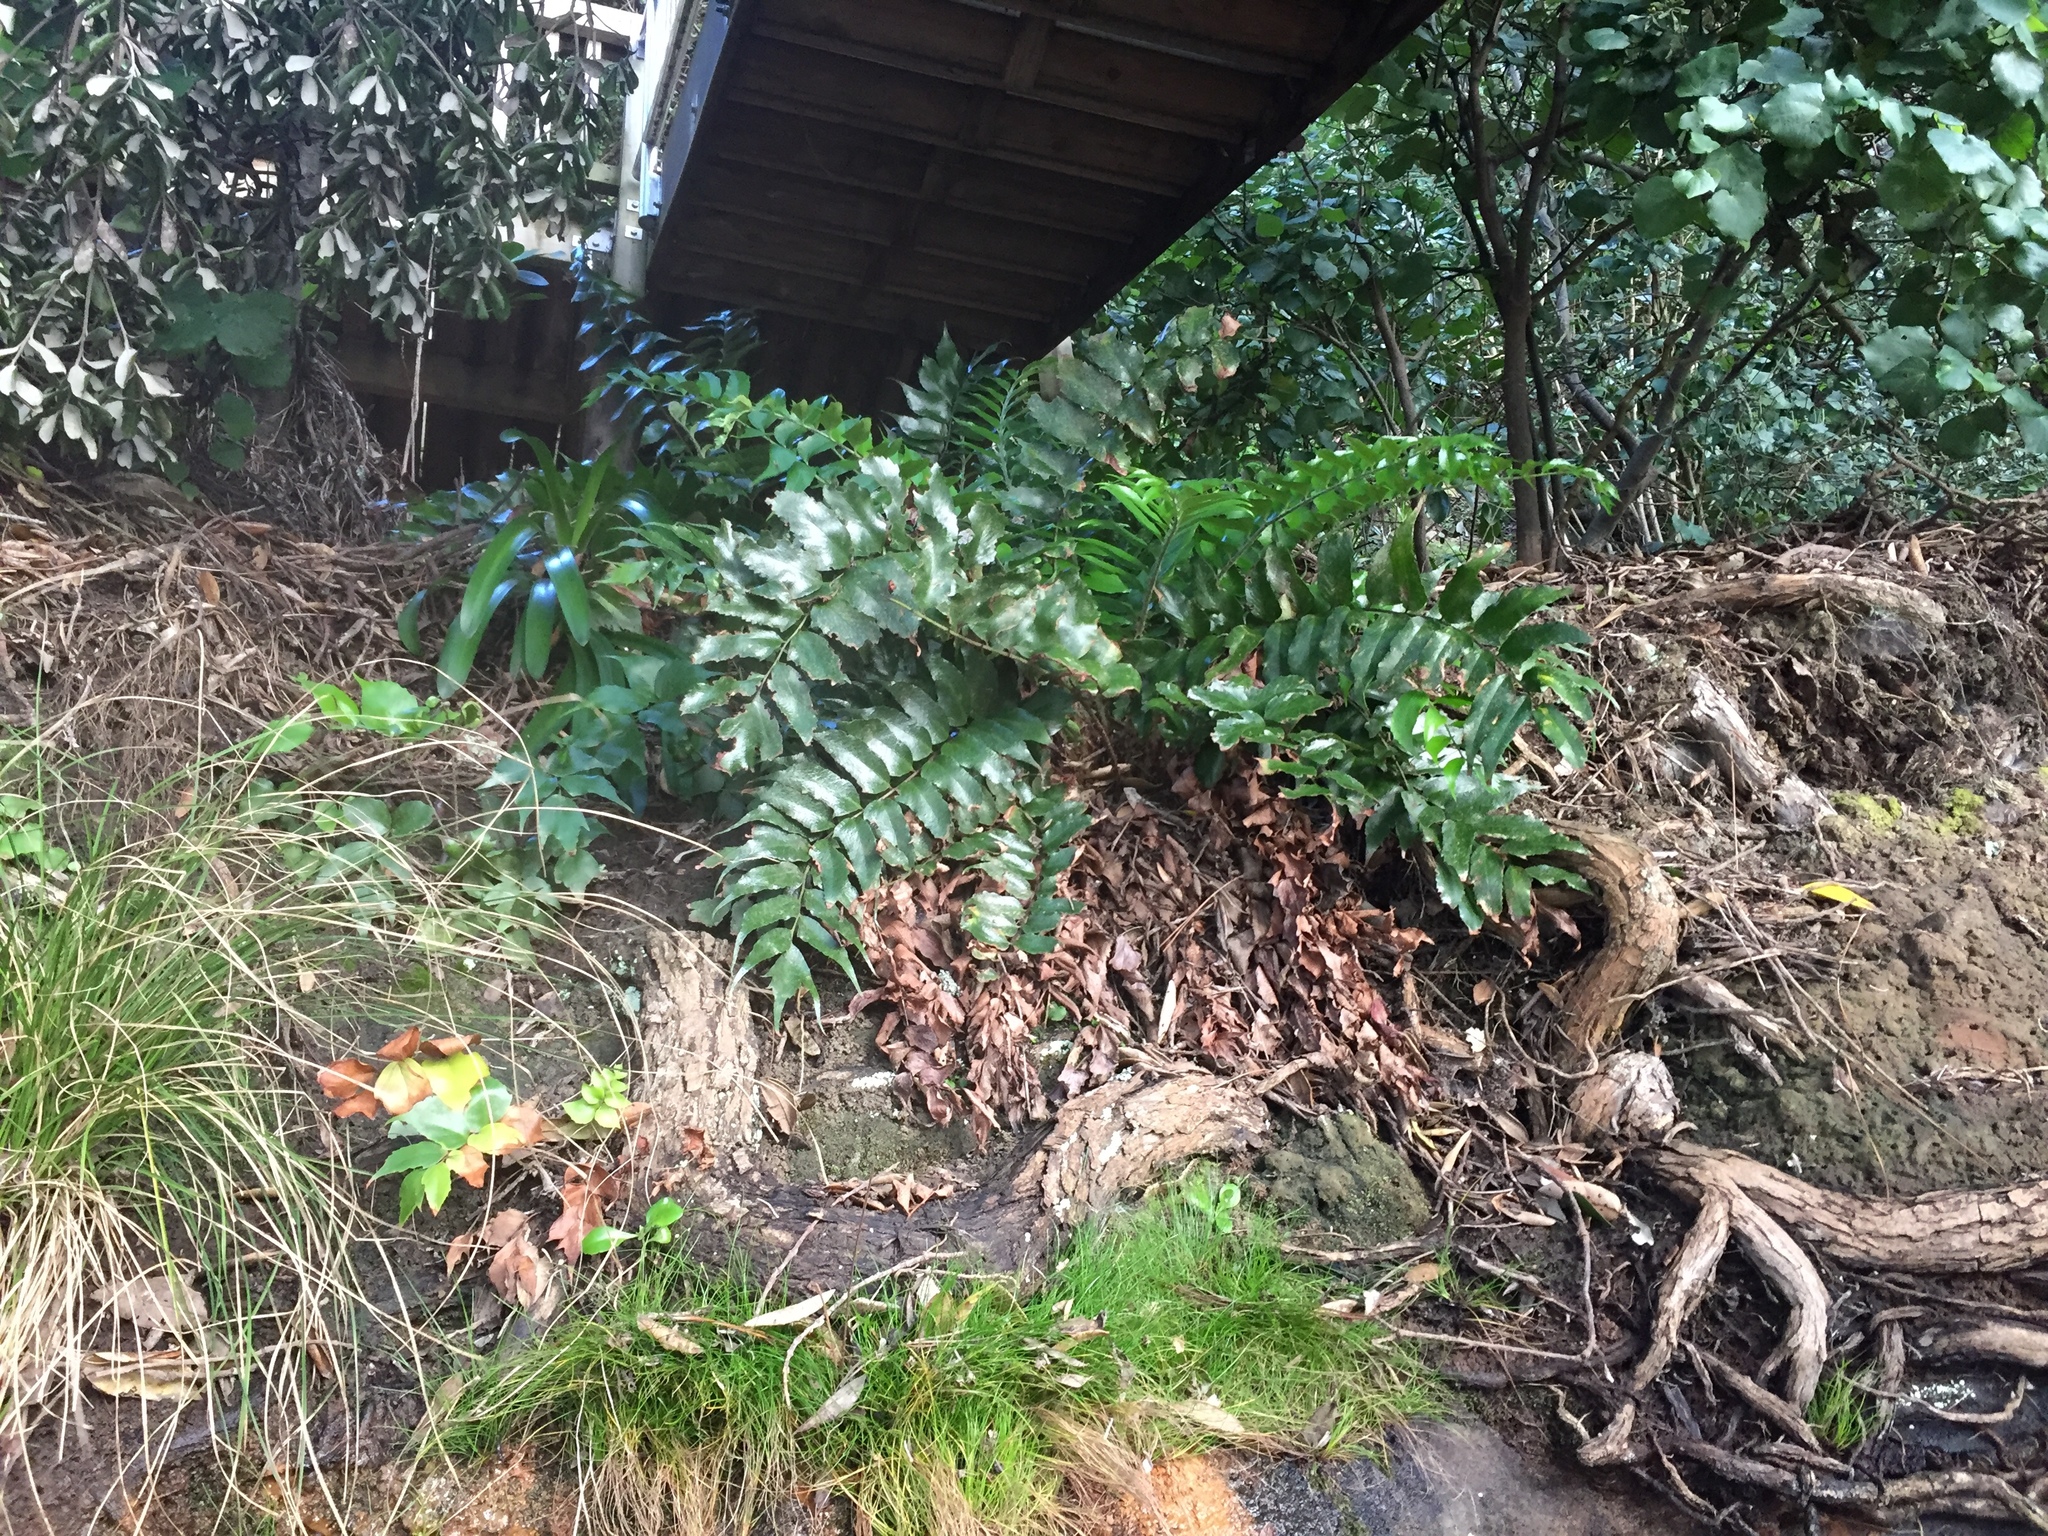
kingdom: Plantae
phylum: Tracheophyta
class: Polypodiopsida
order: Polypodiales
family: Dryopteridaceae
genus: Cyrtomium
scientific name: Cyrtomium falcatum
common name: House holly-fern
